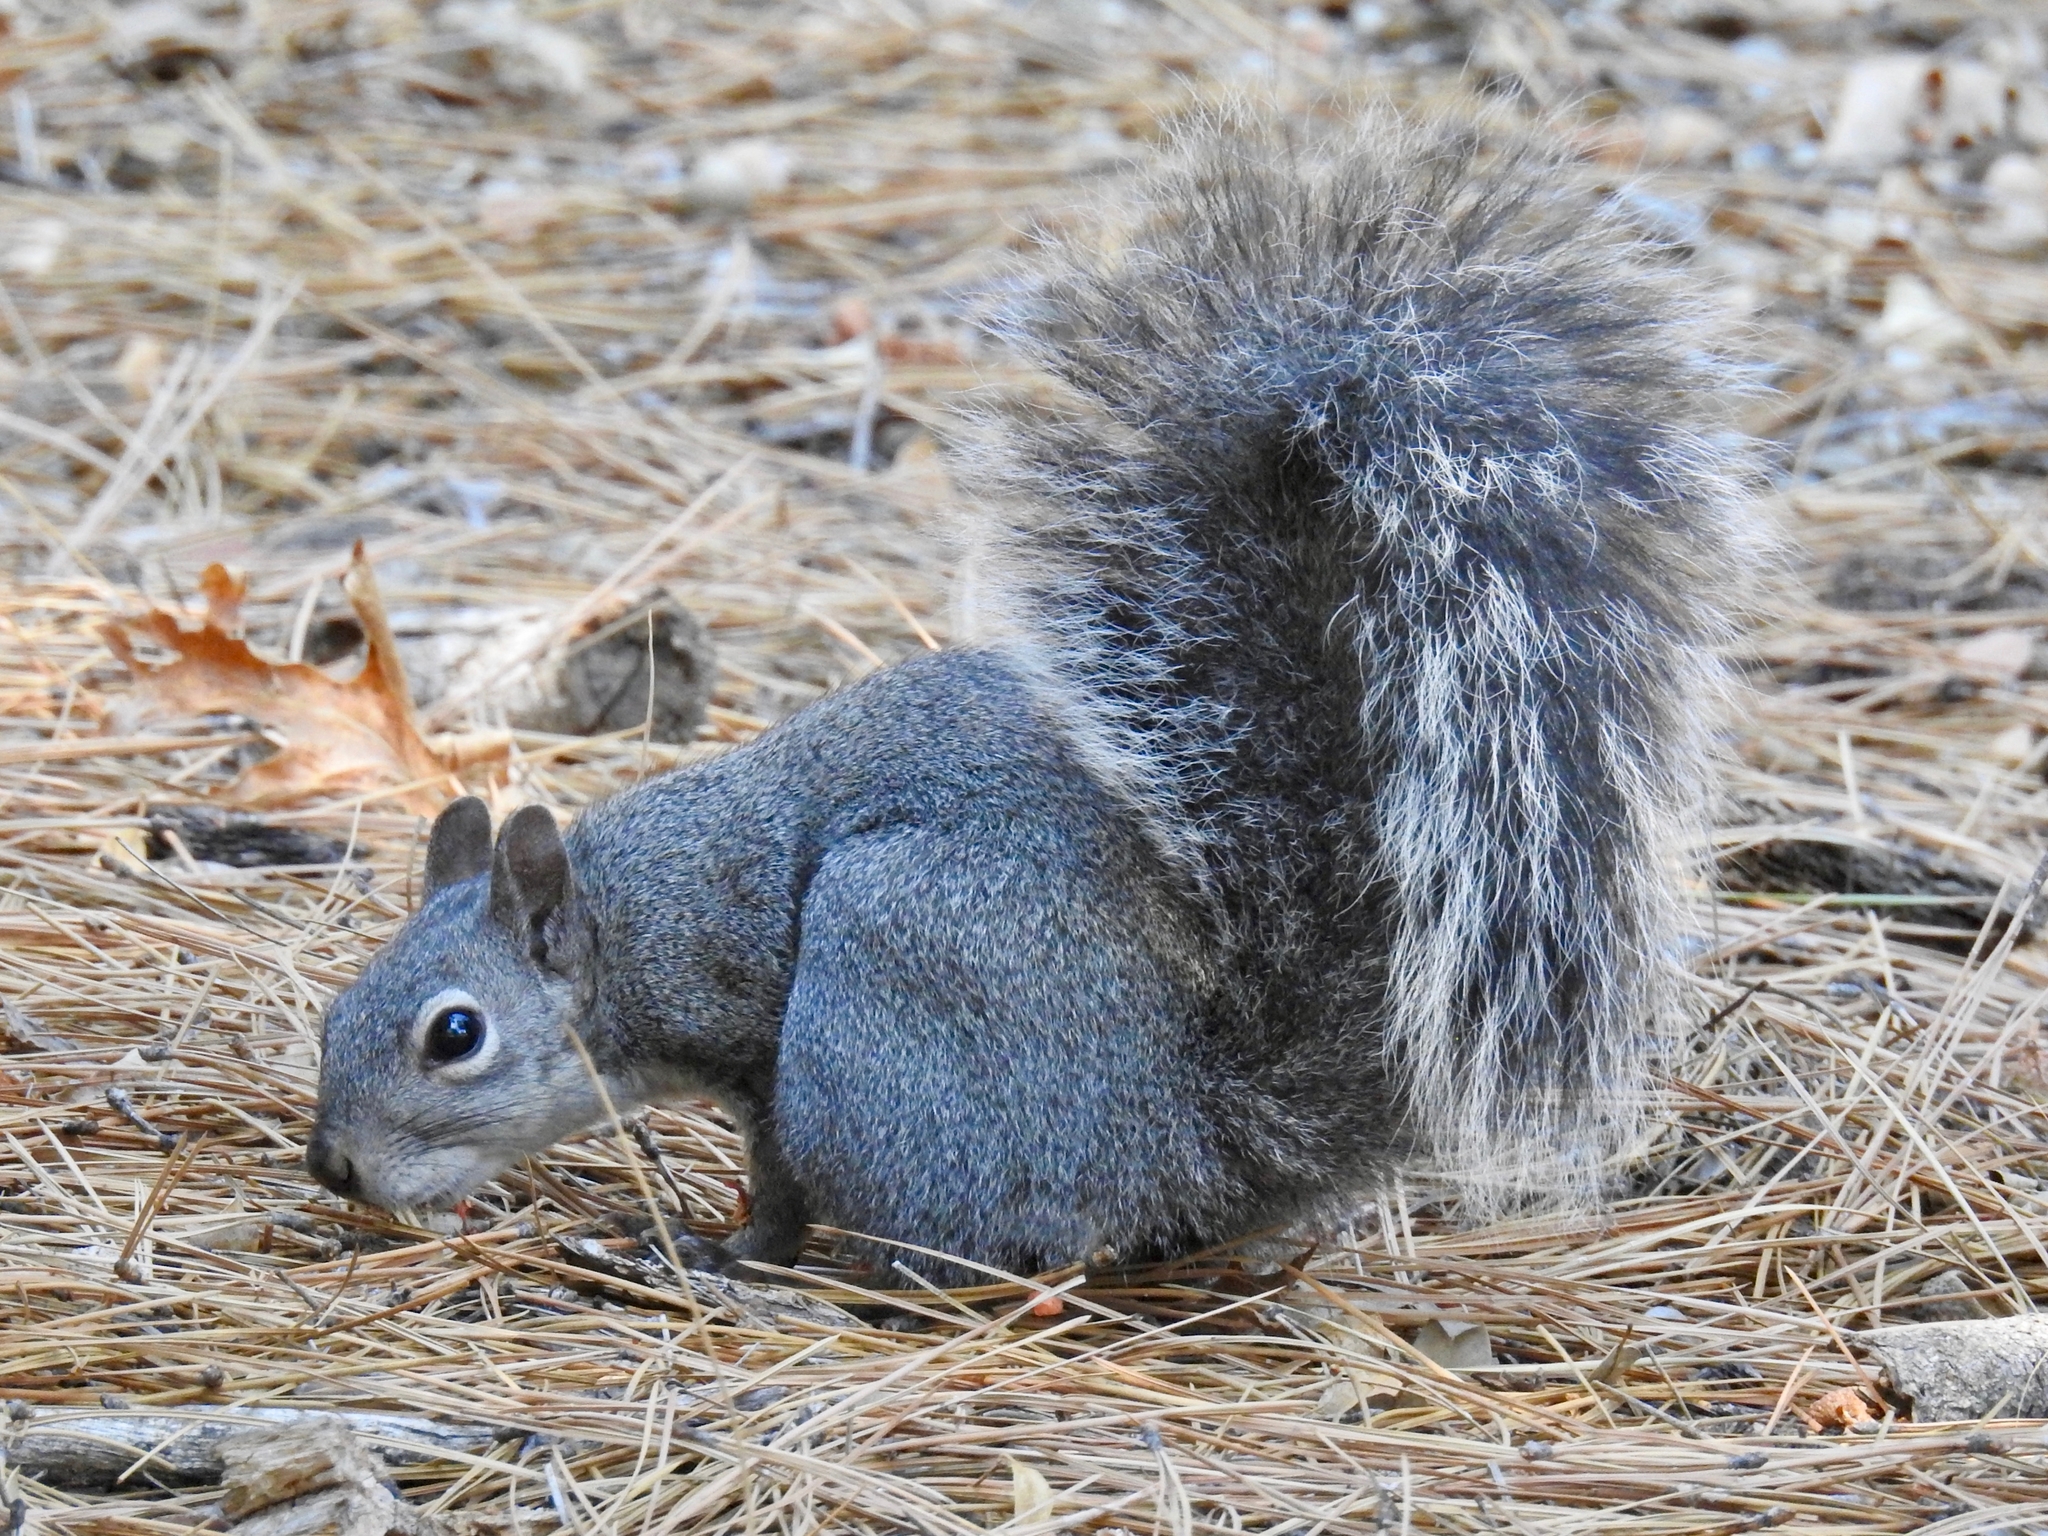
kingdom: Animalia
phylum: Chordata
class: Mammalia
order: Rodentia
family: Sciuridae
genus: Sciurus
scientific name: Sciurus griseus
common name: Western gray squirrel
